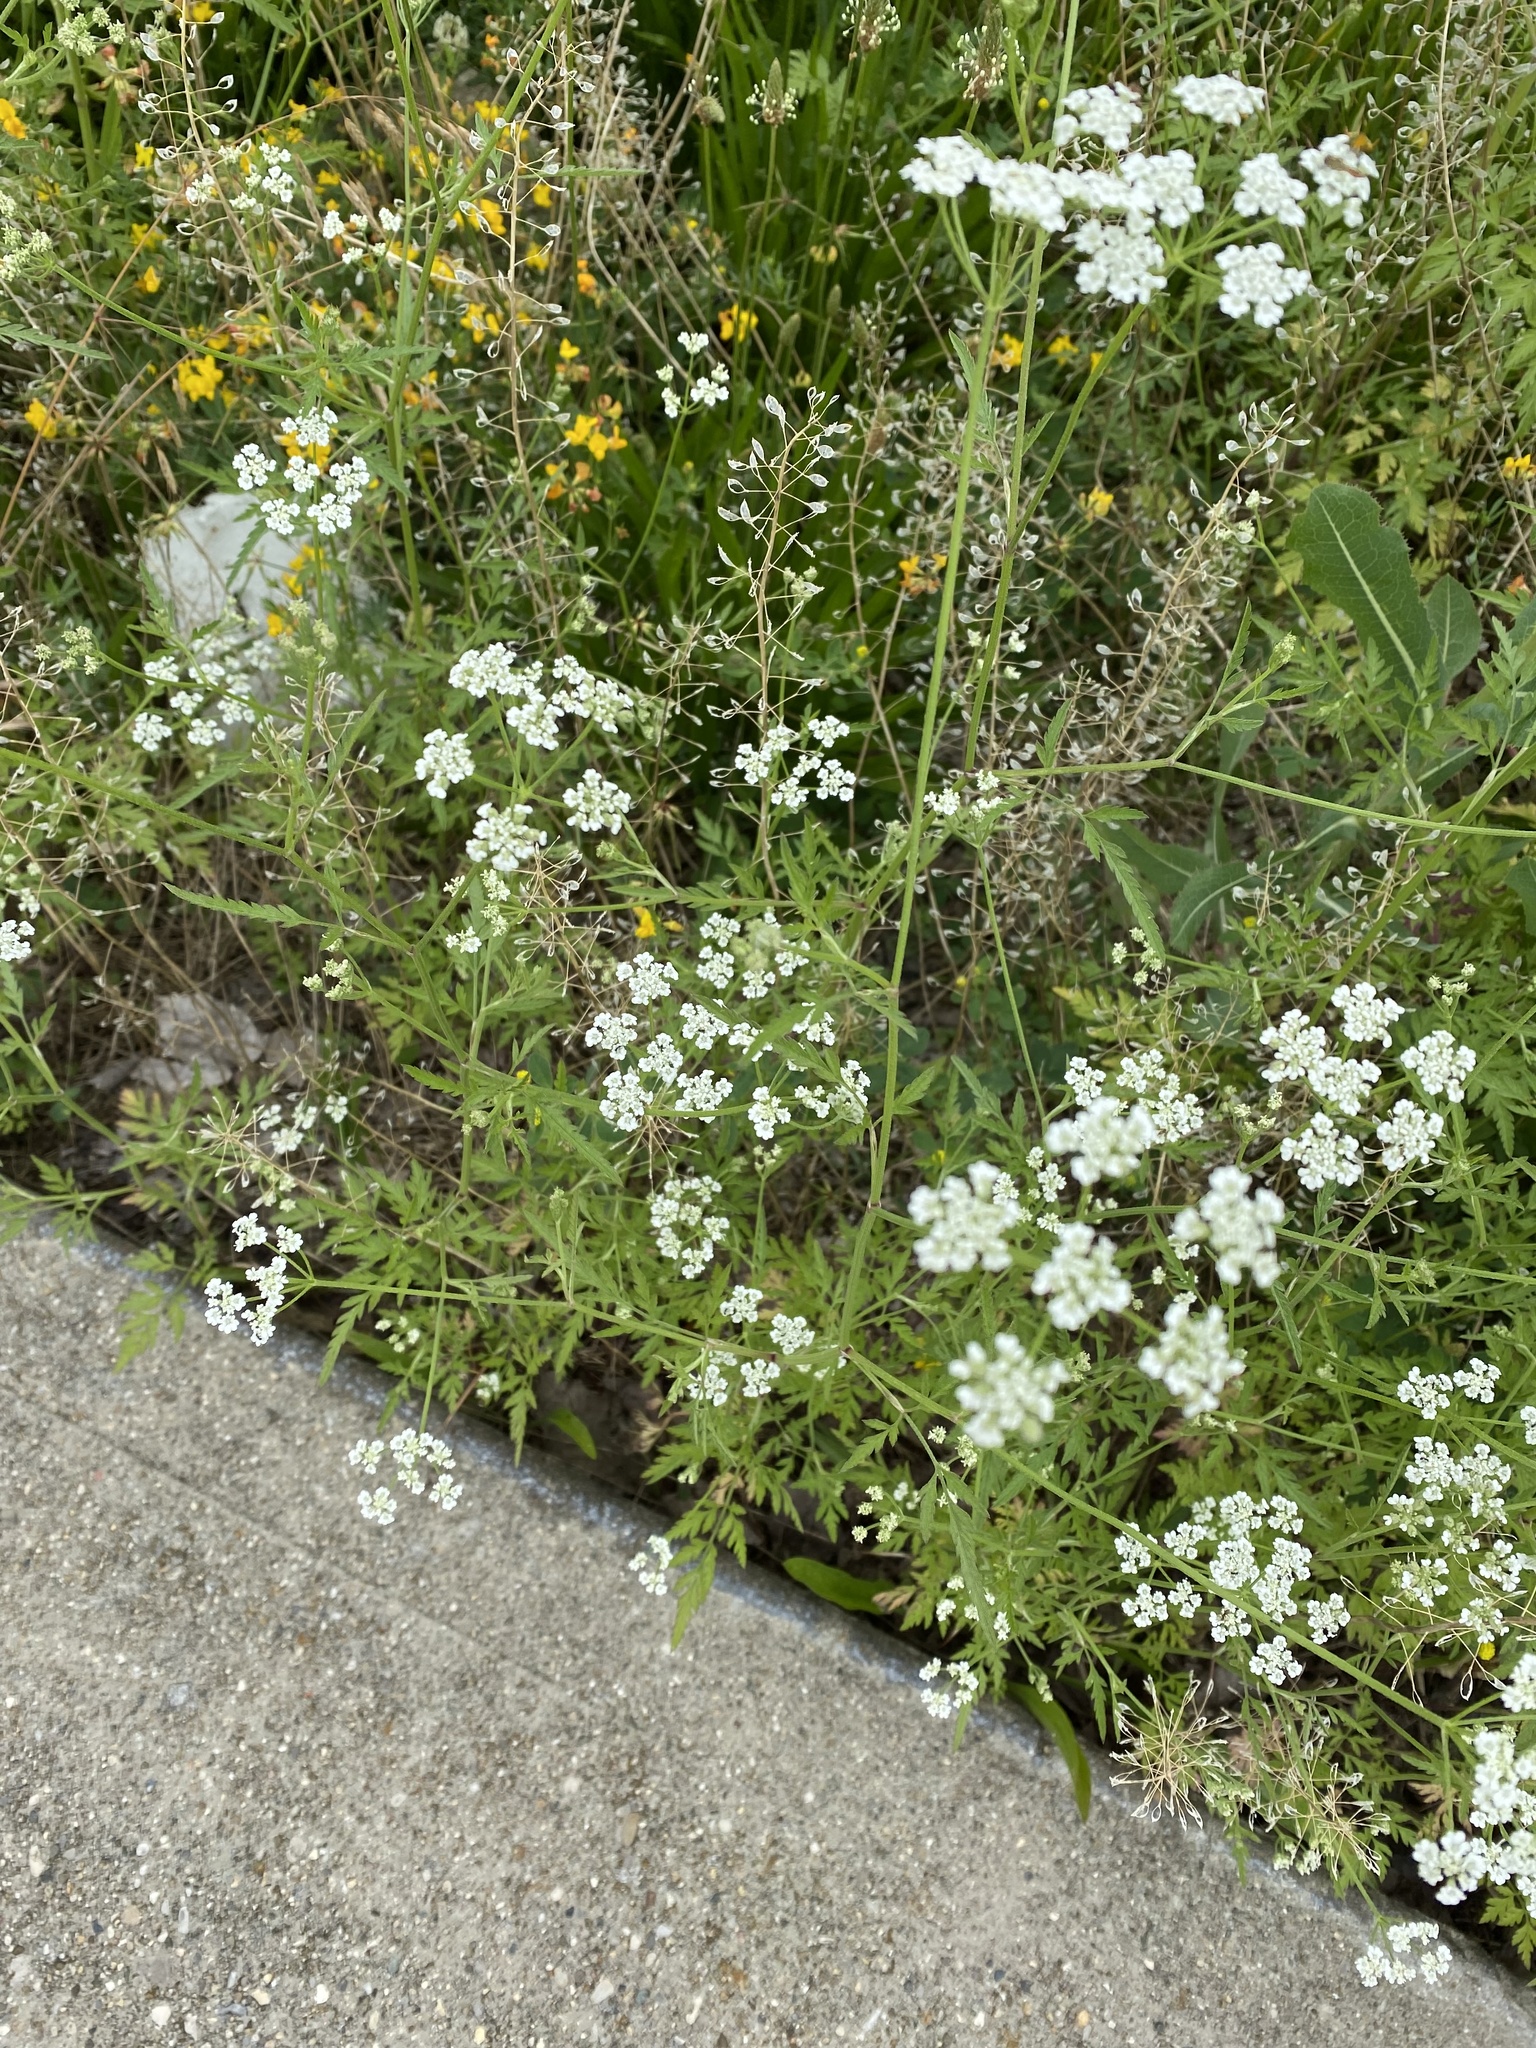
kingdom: Plantae
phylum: Tracheophyta
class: Magnoliopsida
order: Apiales
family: Apiaceae
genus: Torilis
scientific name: Torilis arvensis
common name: Spreading hedge-parsley
